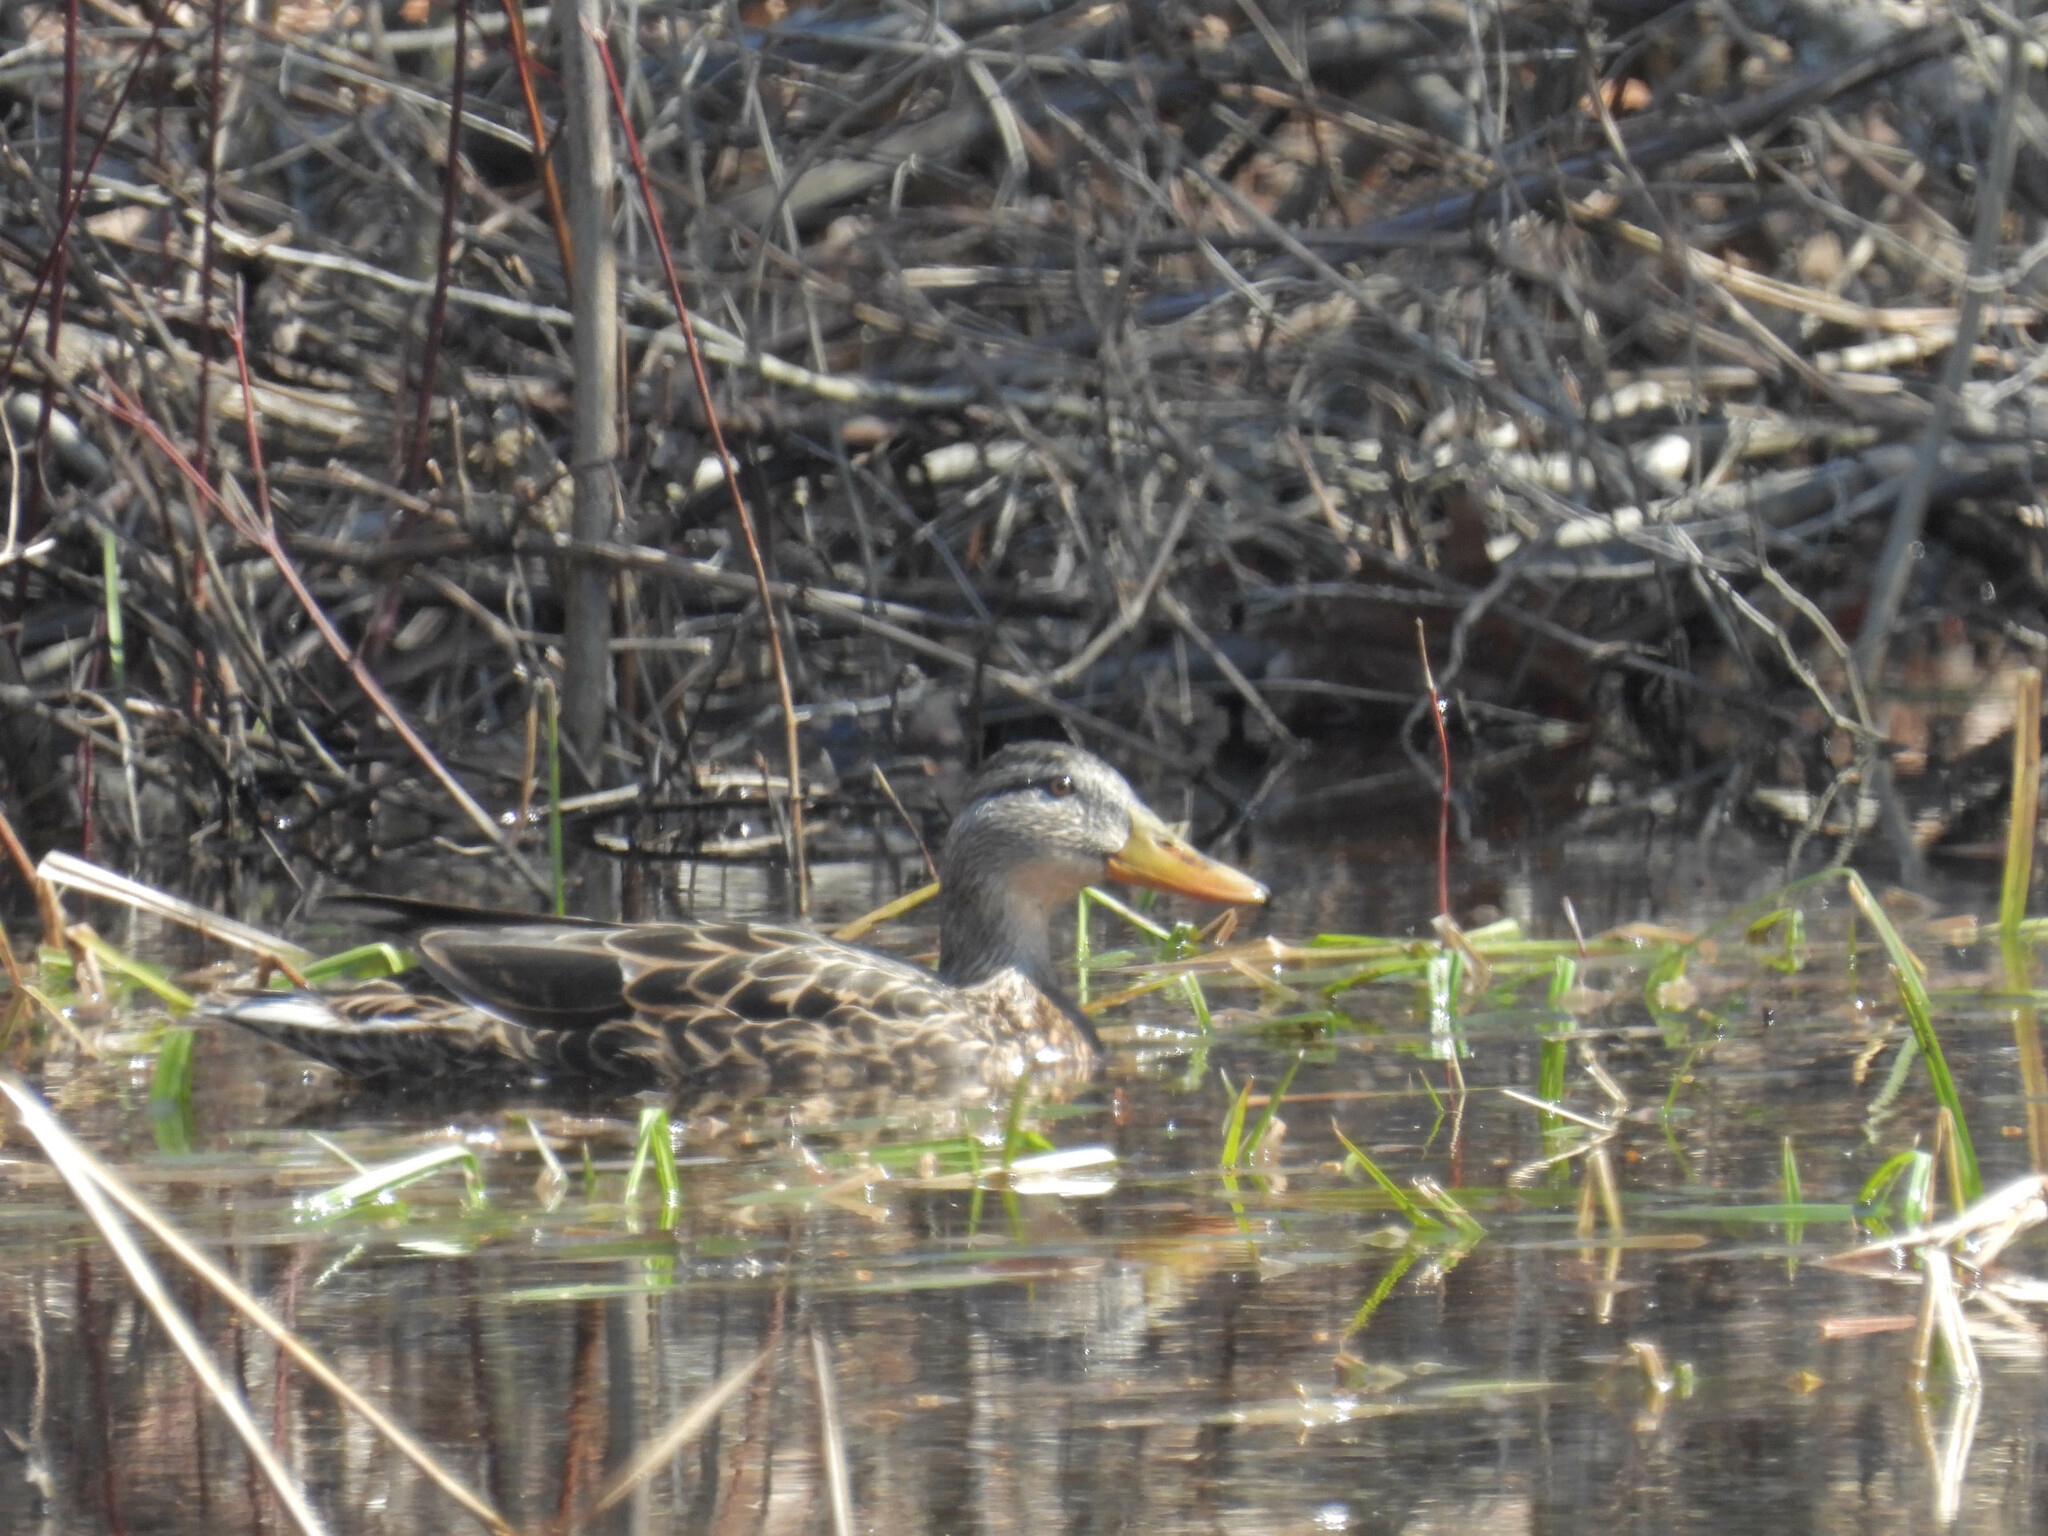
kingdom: Animalia
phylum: Chordata
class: Aves
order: Anseriformes
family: Anatidae
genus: Anas
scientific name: Anas platyrhynchos
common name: Mallard
